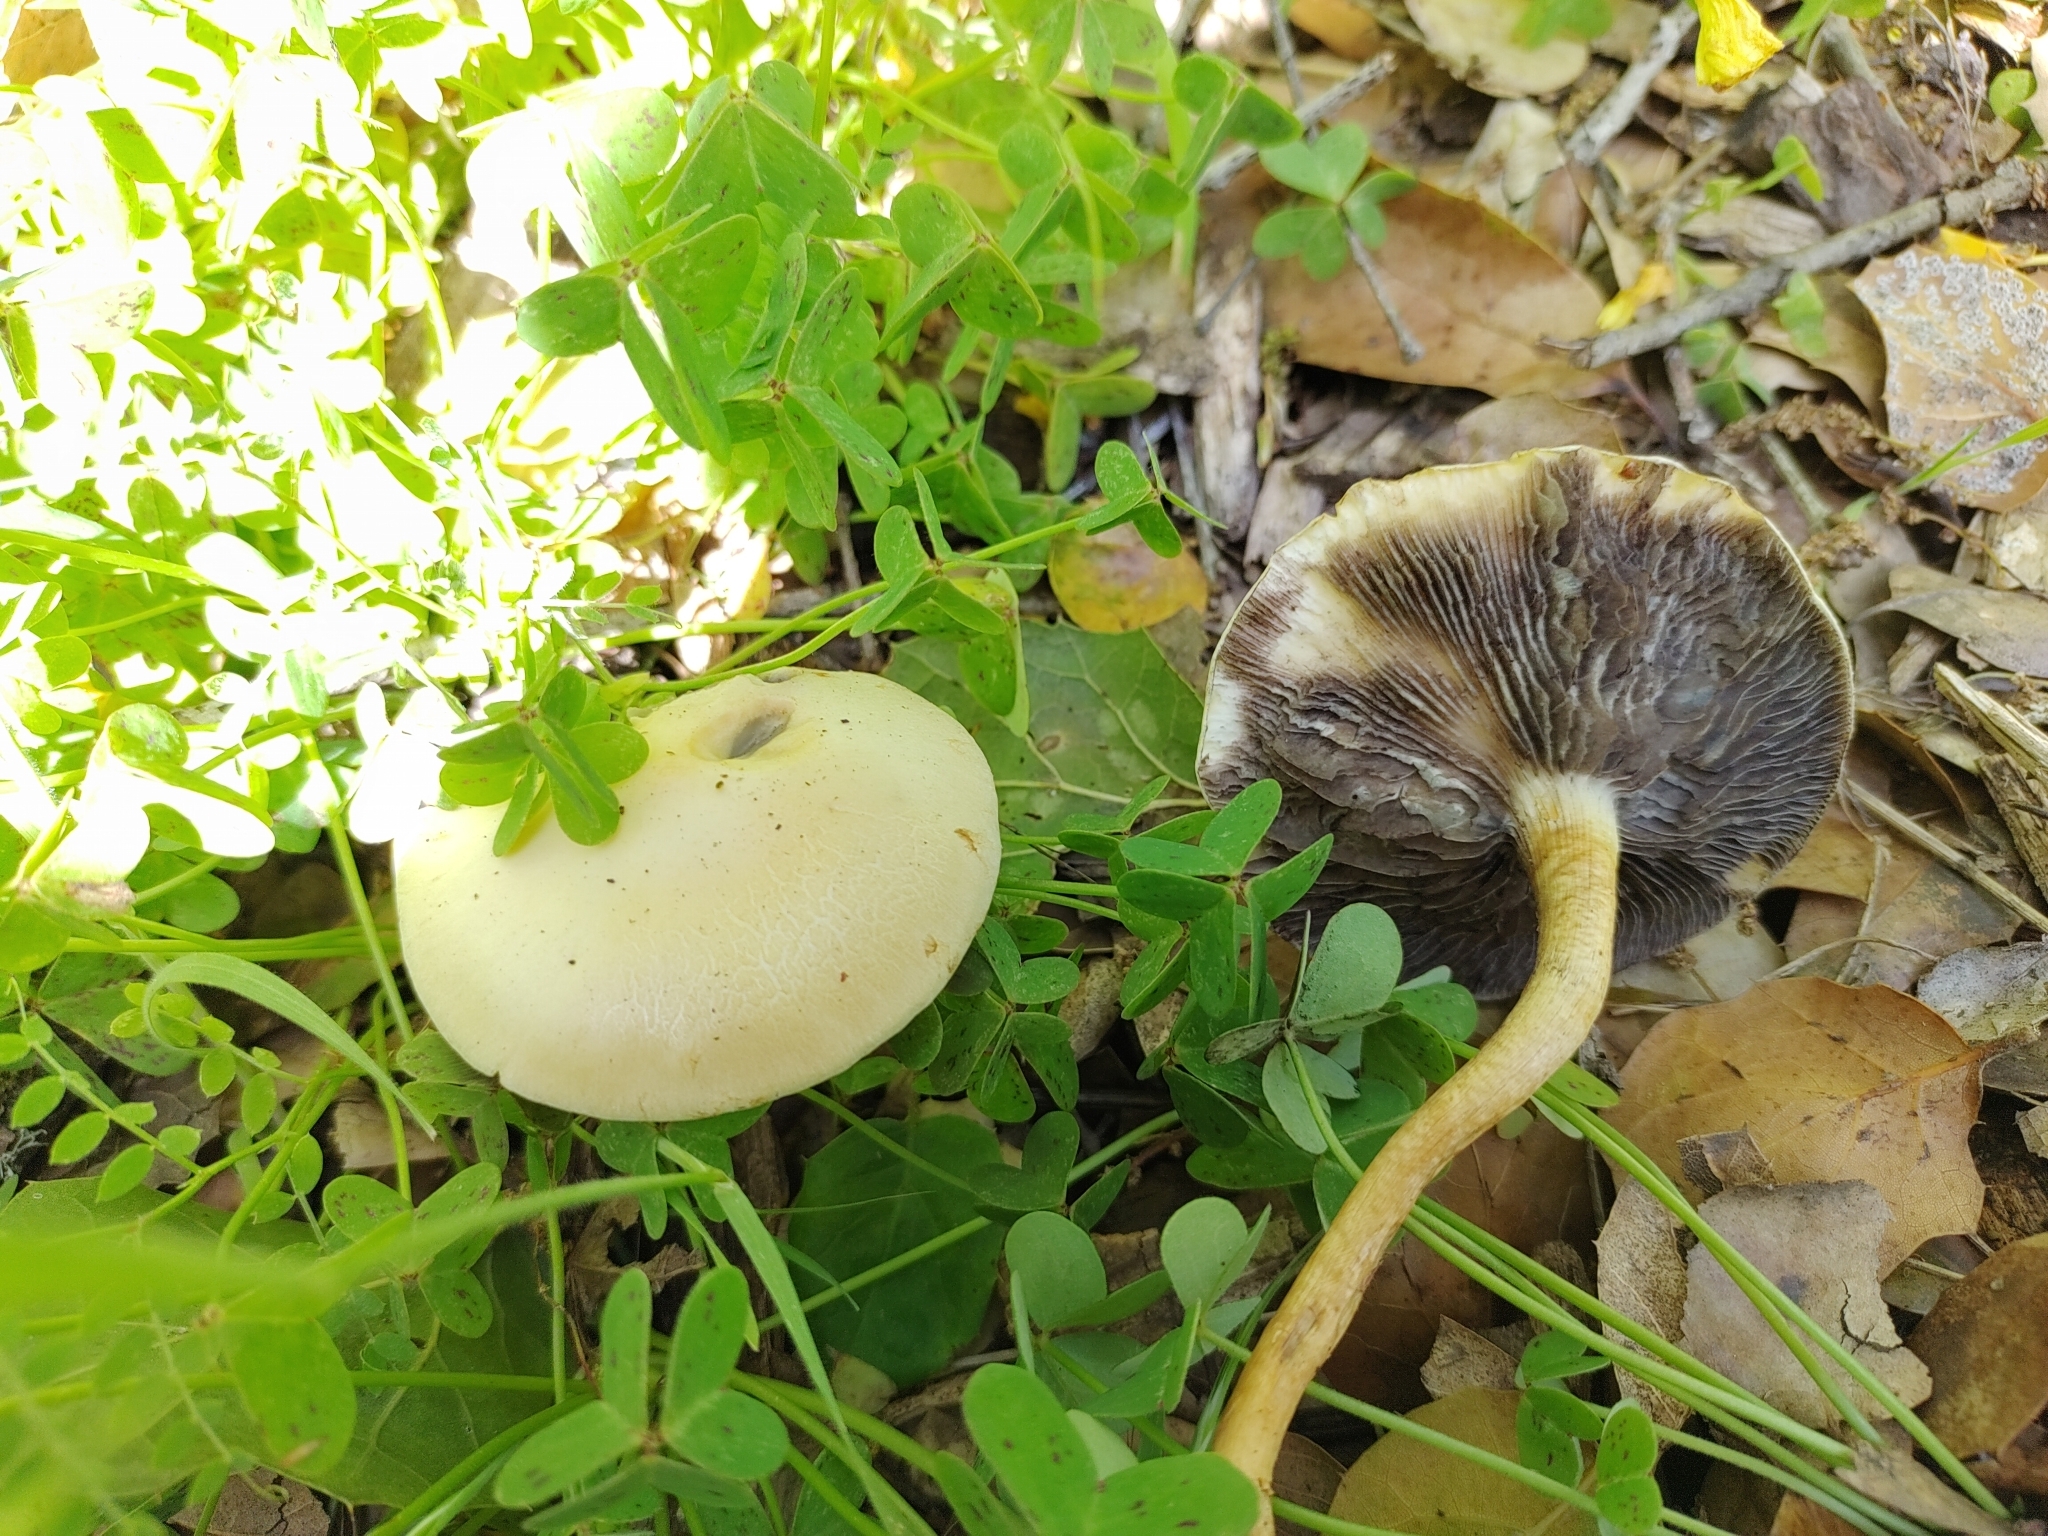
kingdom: Fungi
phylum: Basidiomycota
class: Agaricomycetes
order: Agaricales
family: Strophariaceae
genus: Leratiomyces
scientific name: Leratiomyces percevalii
